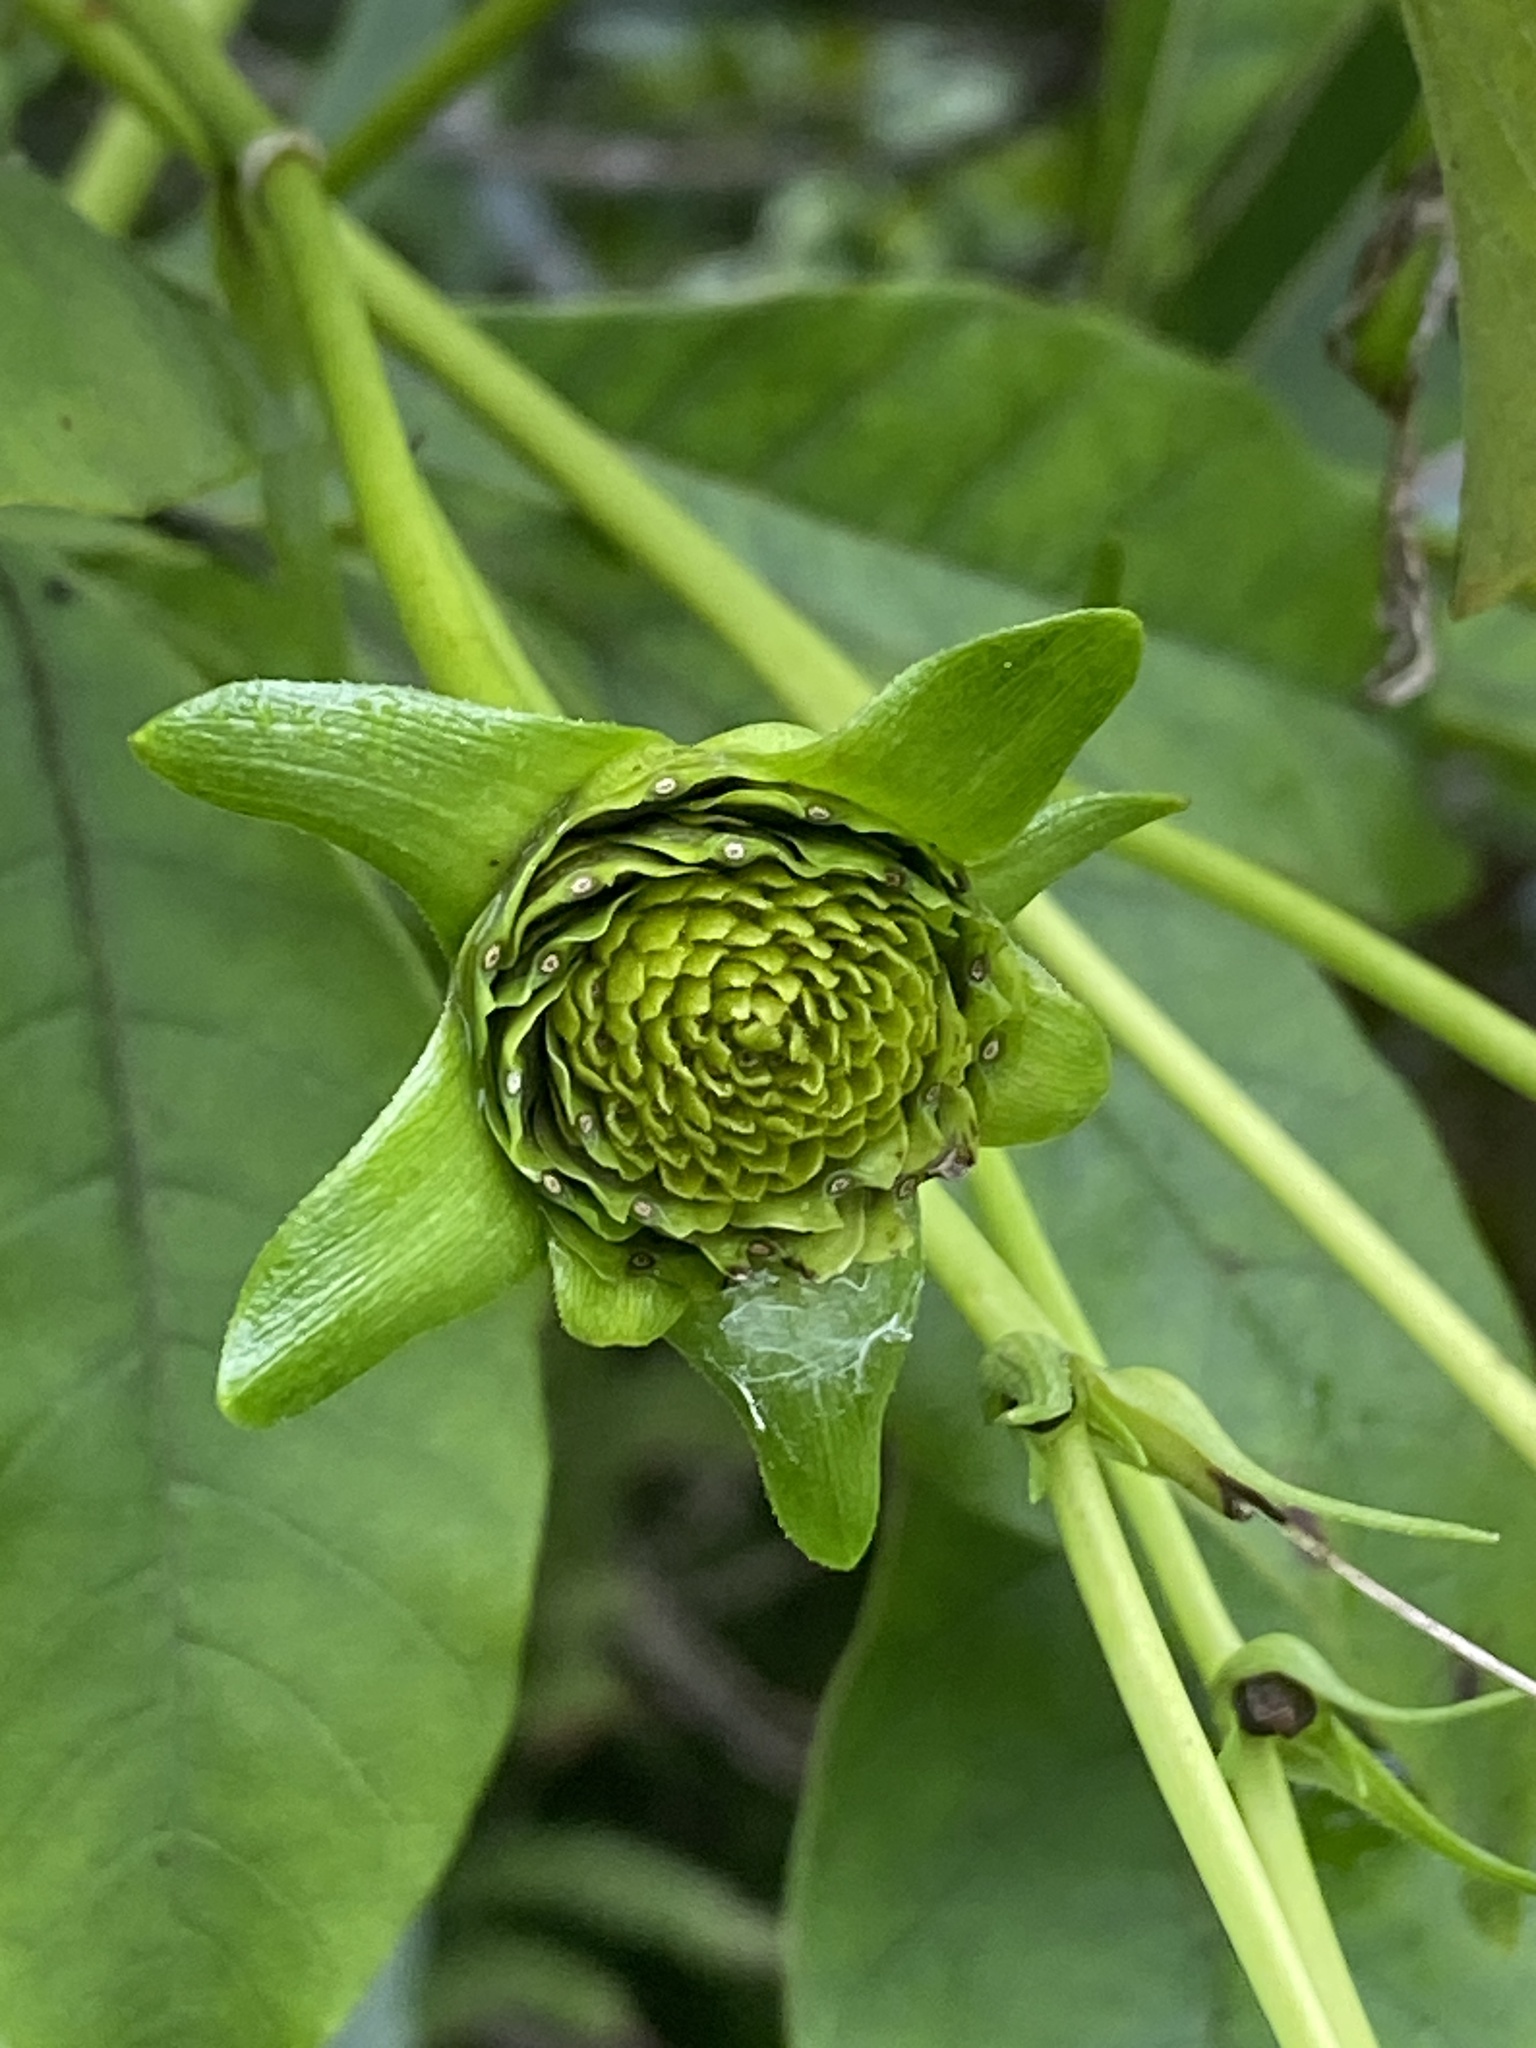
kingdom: Plantae
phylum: Tracheophyta
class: Magnoliopsida
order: Asterales
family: Asteraceae
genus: Silphium
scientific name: Silphium perfoliatum
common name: Cup-plant
